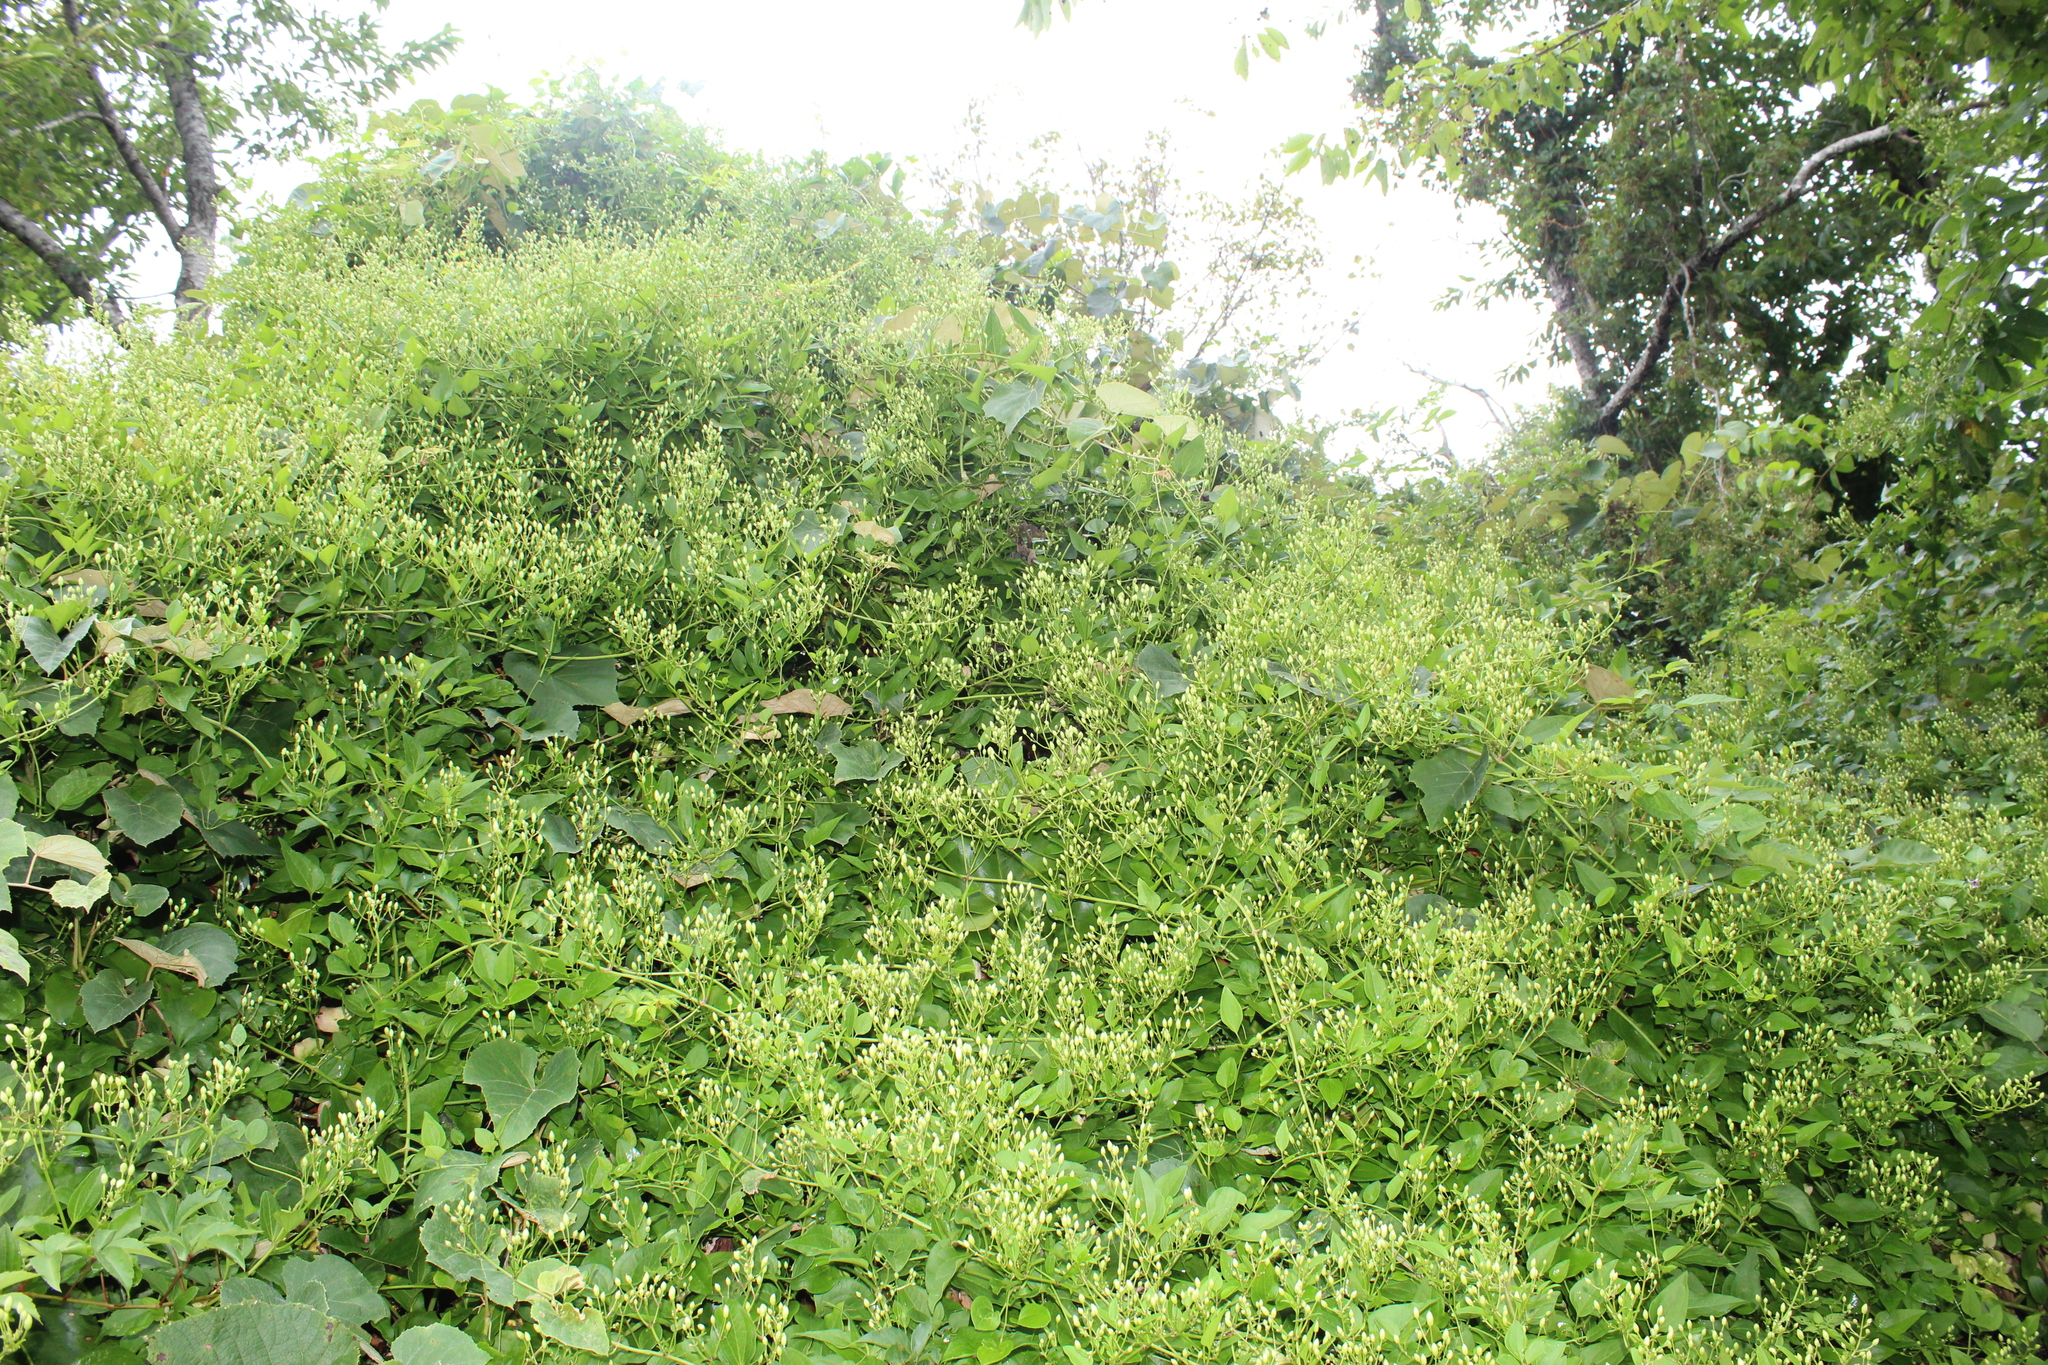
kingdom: Plantae
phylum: Tracheophyta
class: Magnoliopsida
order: Ranunculales
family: Ranunculaceae
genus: Clematis
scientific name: Clematis terniflora
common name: Sweet autumn clematis
